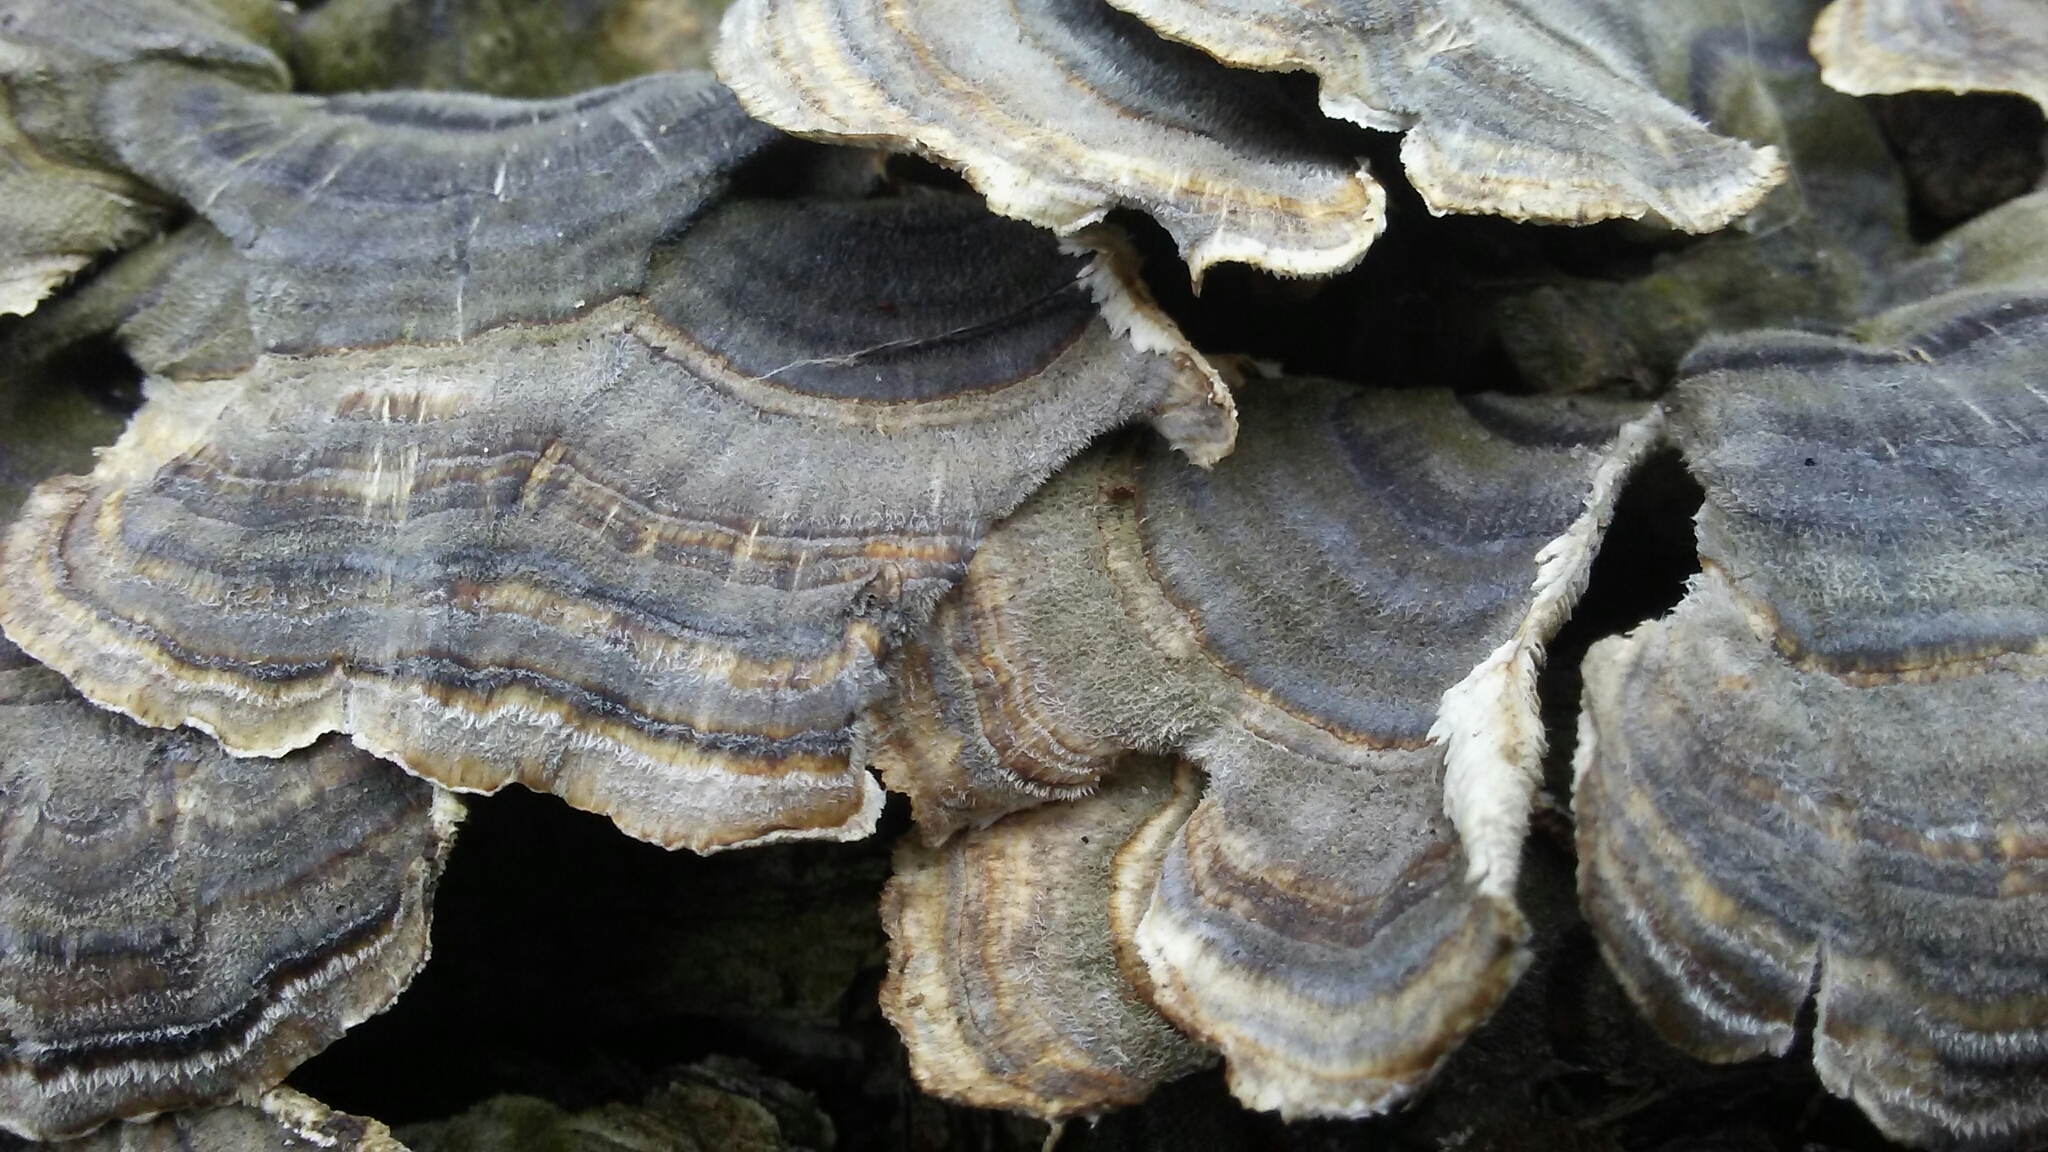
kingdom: Fungi
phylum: Basidiomycota
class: Agaricomycetes
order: Polyporales
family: Polyporaceae
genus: Trametes
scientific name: Trametes versicolor
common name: Turkeytail
